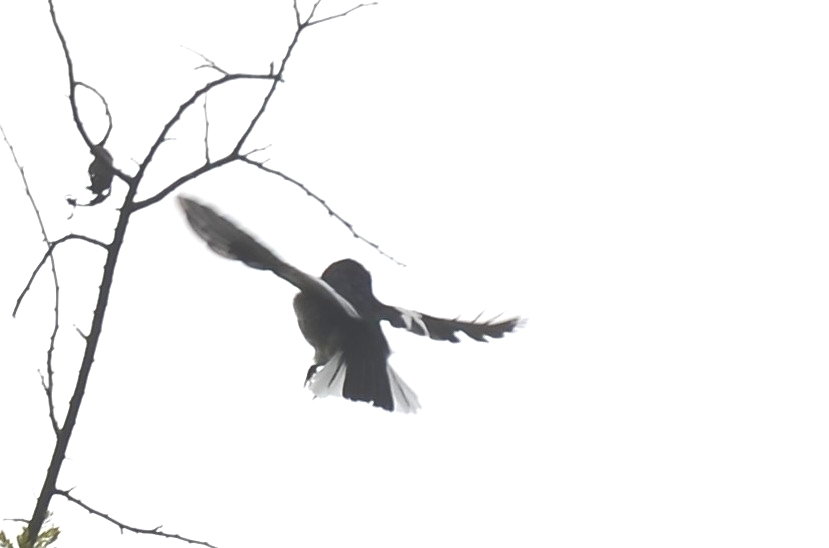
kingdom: Animalia
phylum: Chordata
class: Aves
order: Passeriformes
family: Muscicapidae
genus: Copsychus
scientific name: Copsychus saularis
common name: Oriental magpie-robin
